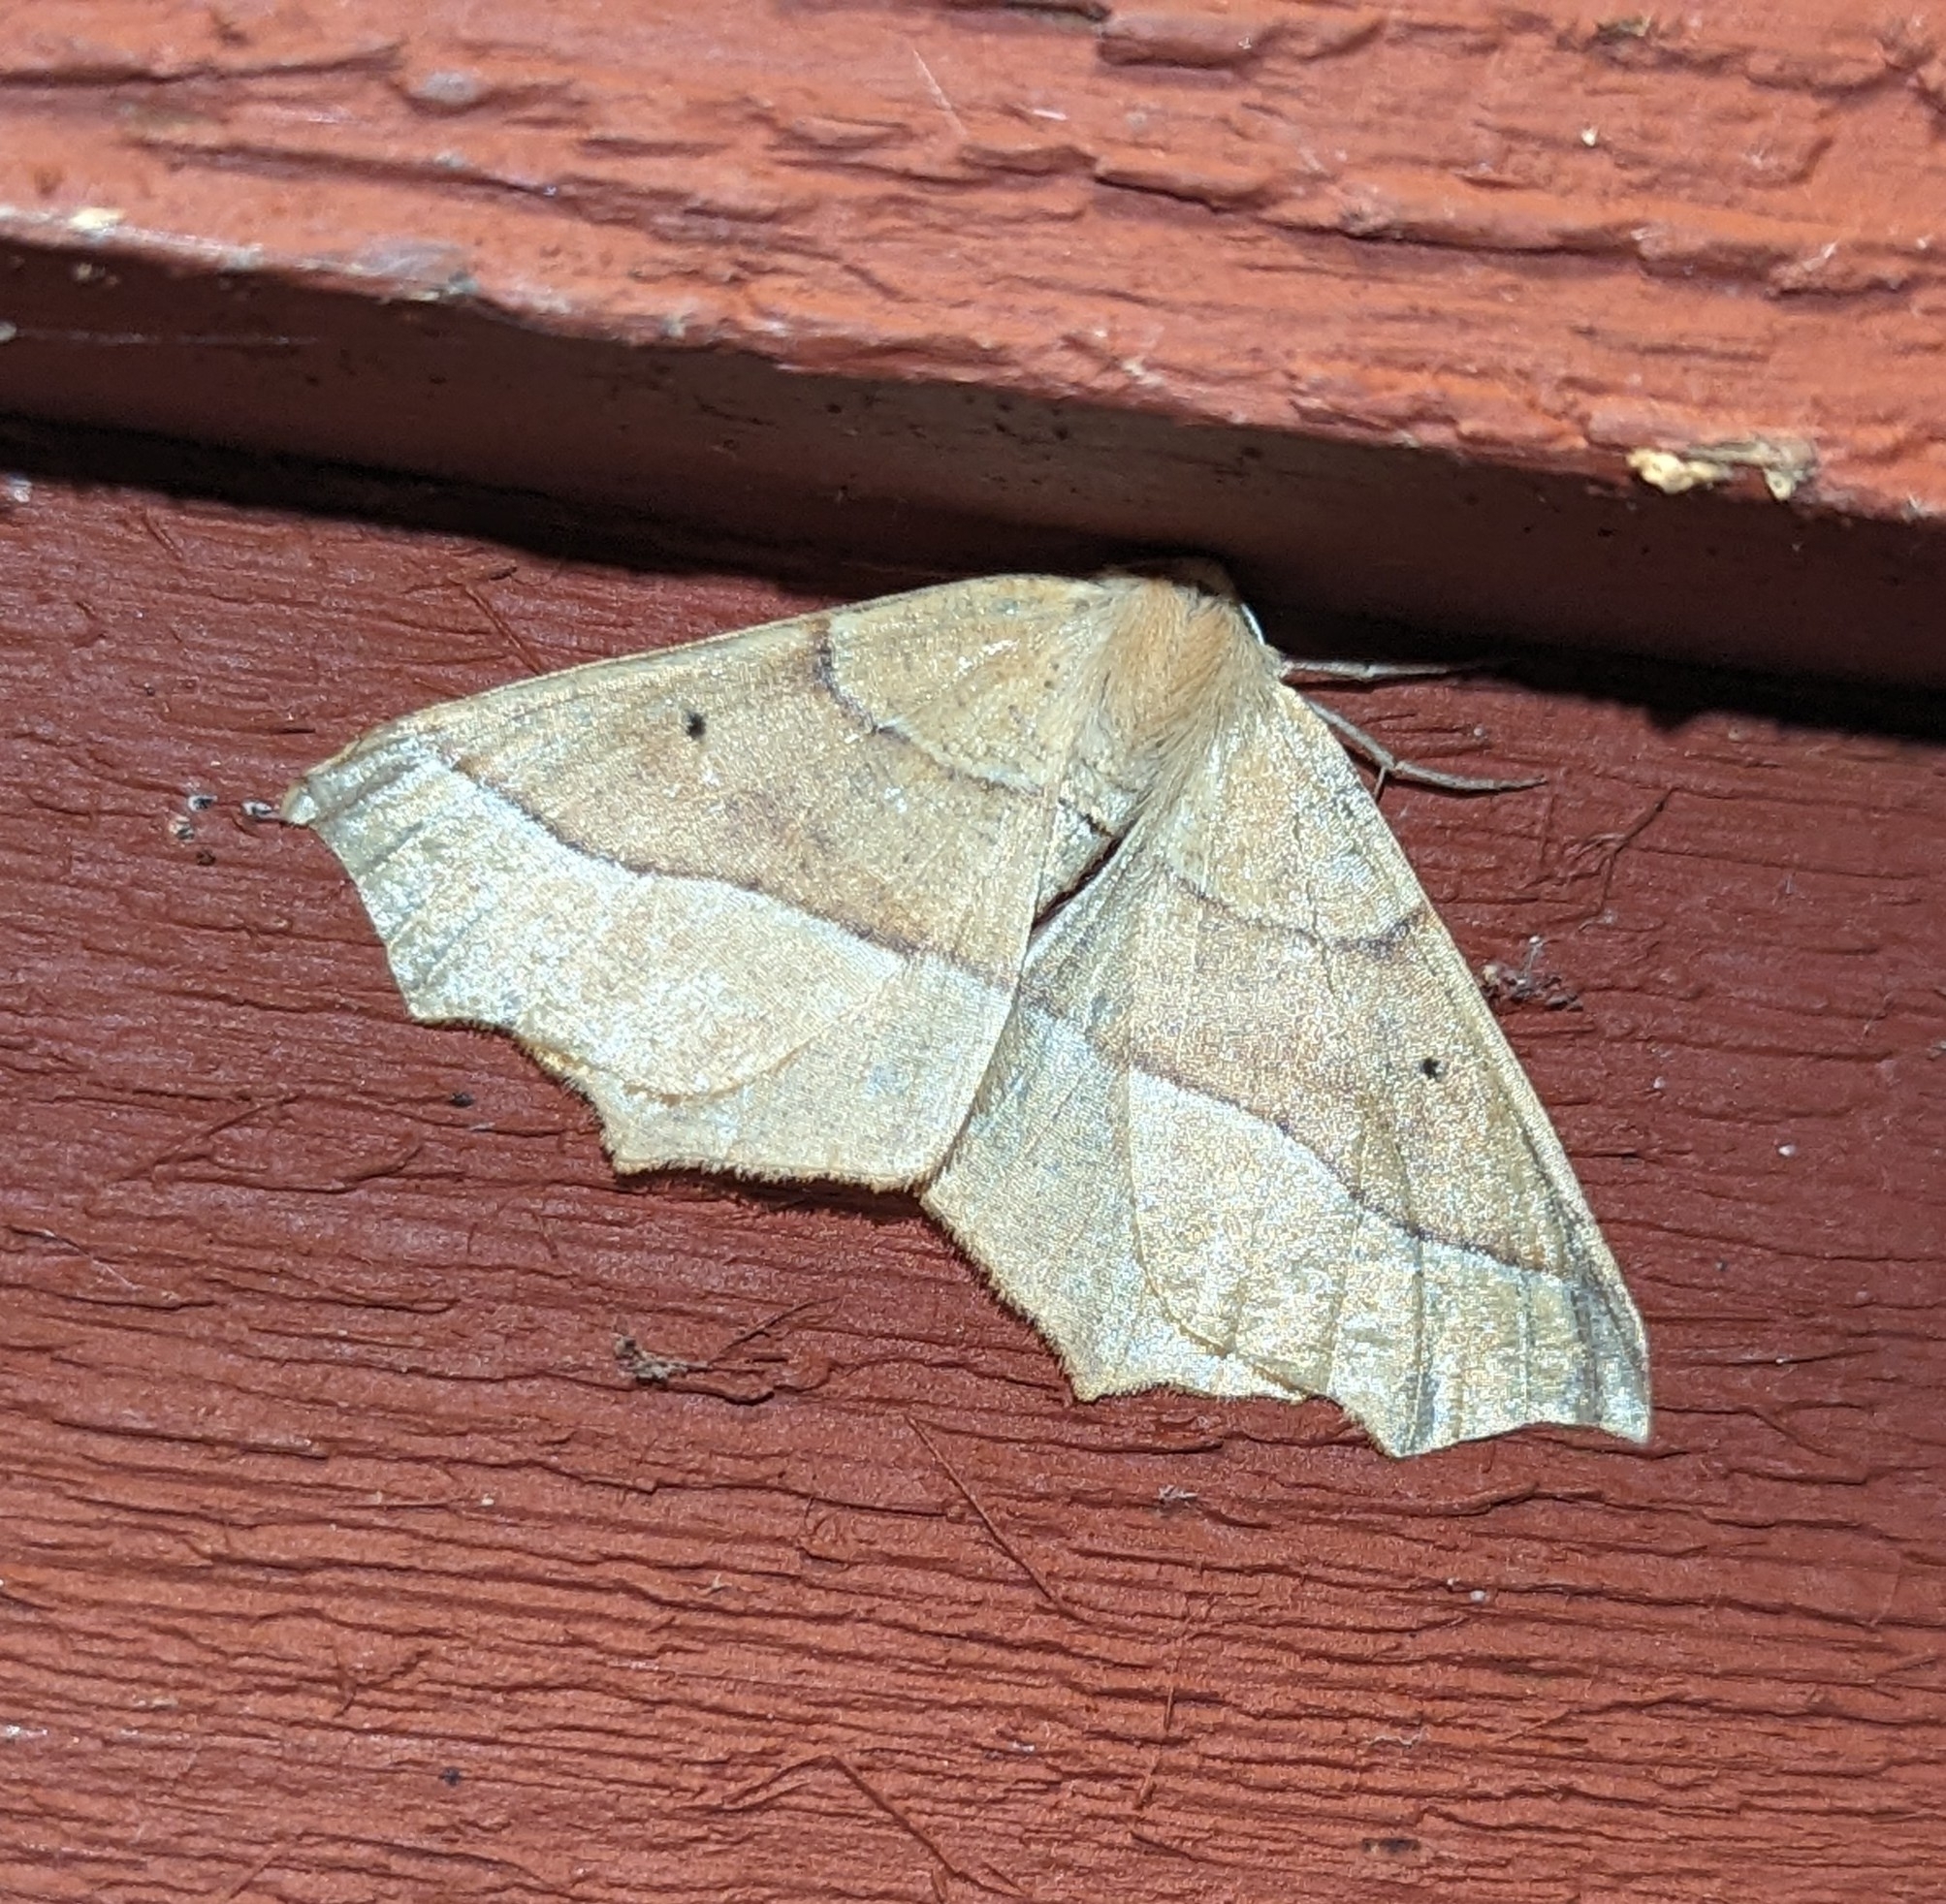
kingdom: Animalia
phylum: Arthropoda
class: Insecta
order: Lepidoptera
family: Geometridae
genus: Synaxis
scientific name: Synaxis jubararia
